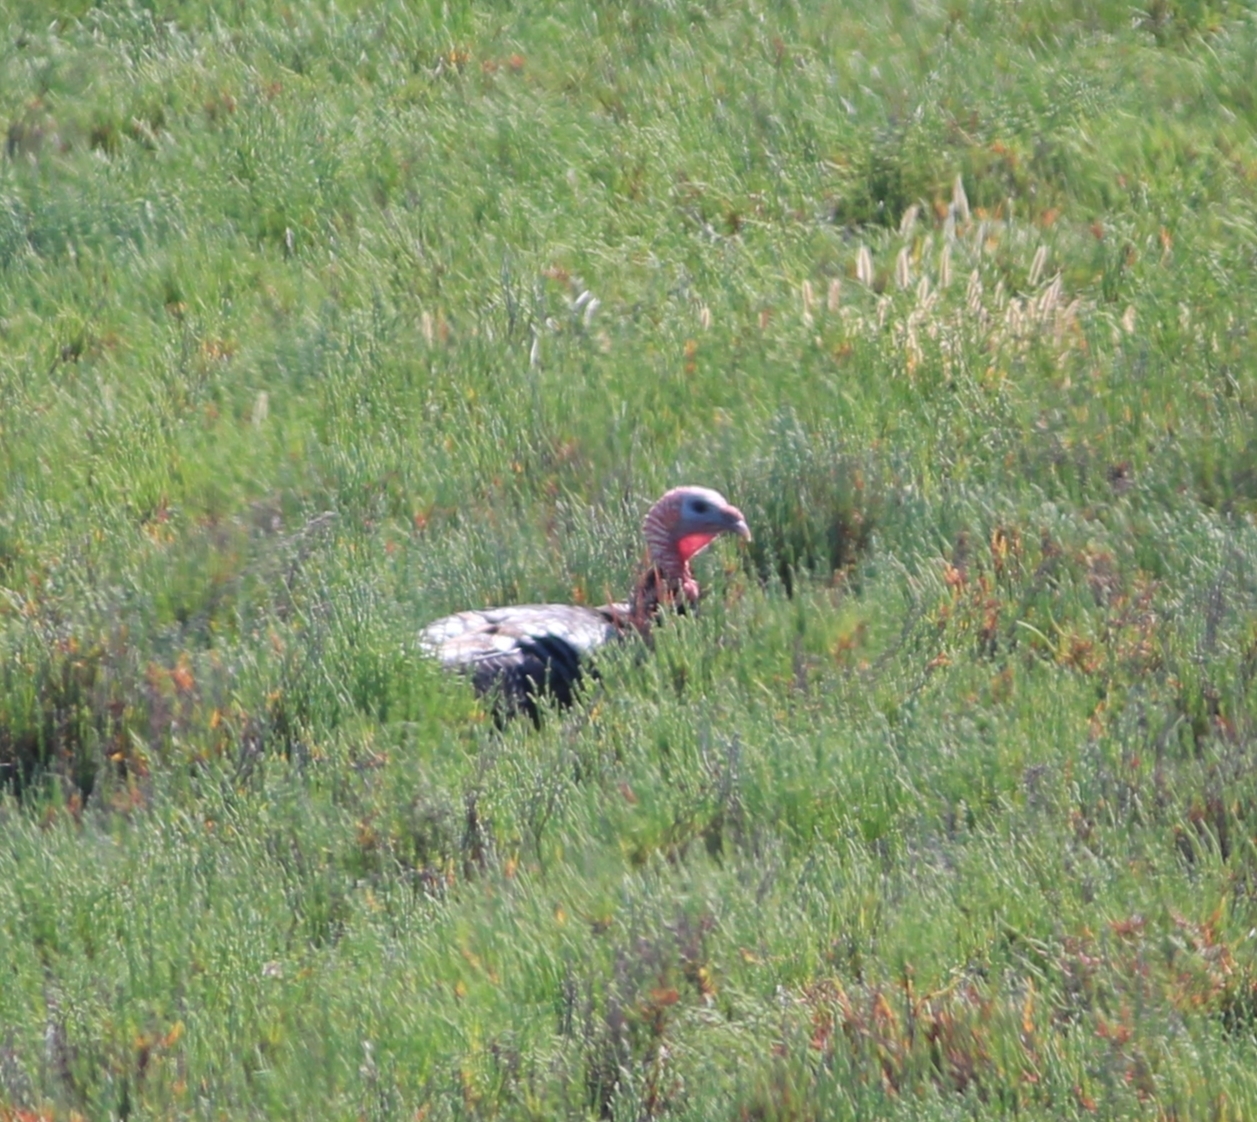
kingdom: Animalia
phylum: Chordata
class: Aves
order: Galliformes
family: Phasianidae
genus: Meleagris
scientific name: Meleagris gallopavo
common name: Wild turkey
